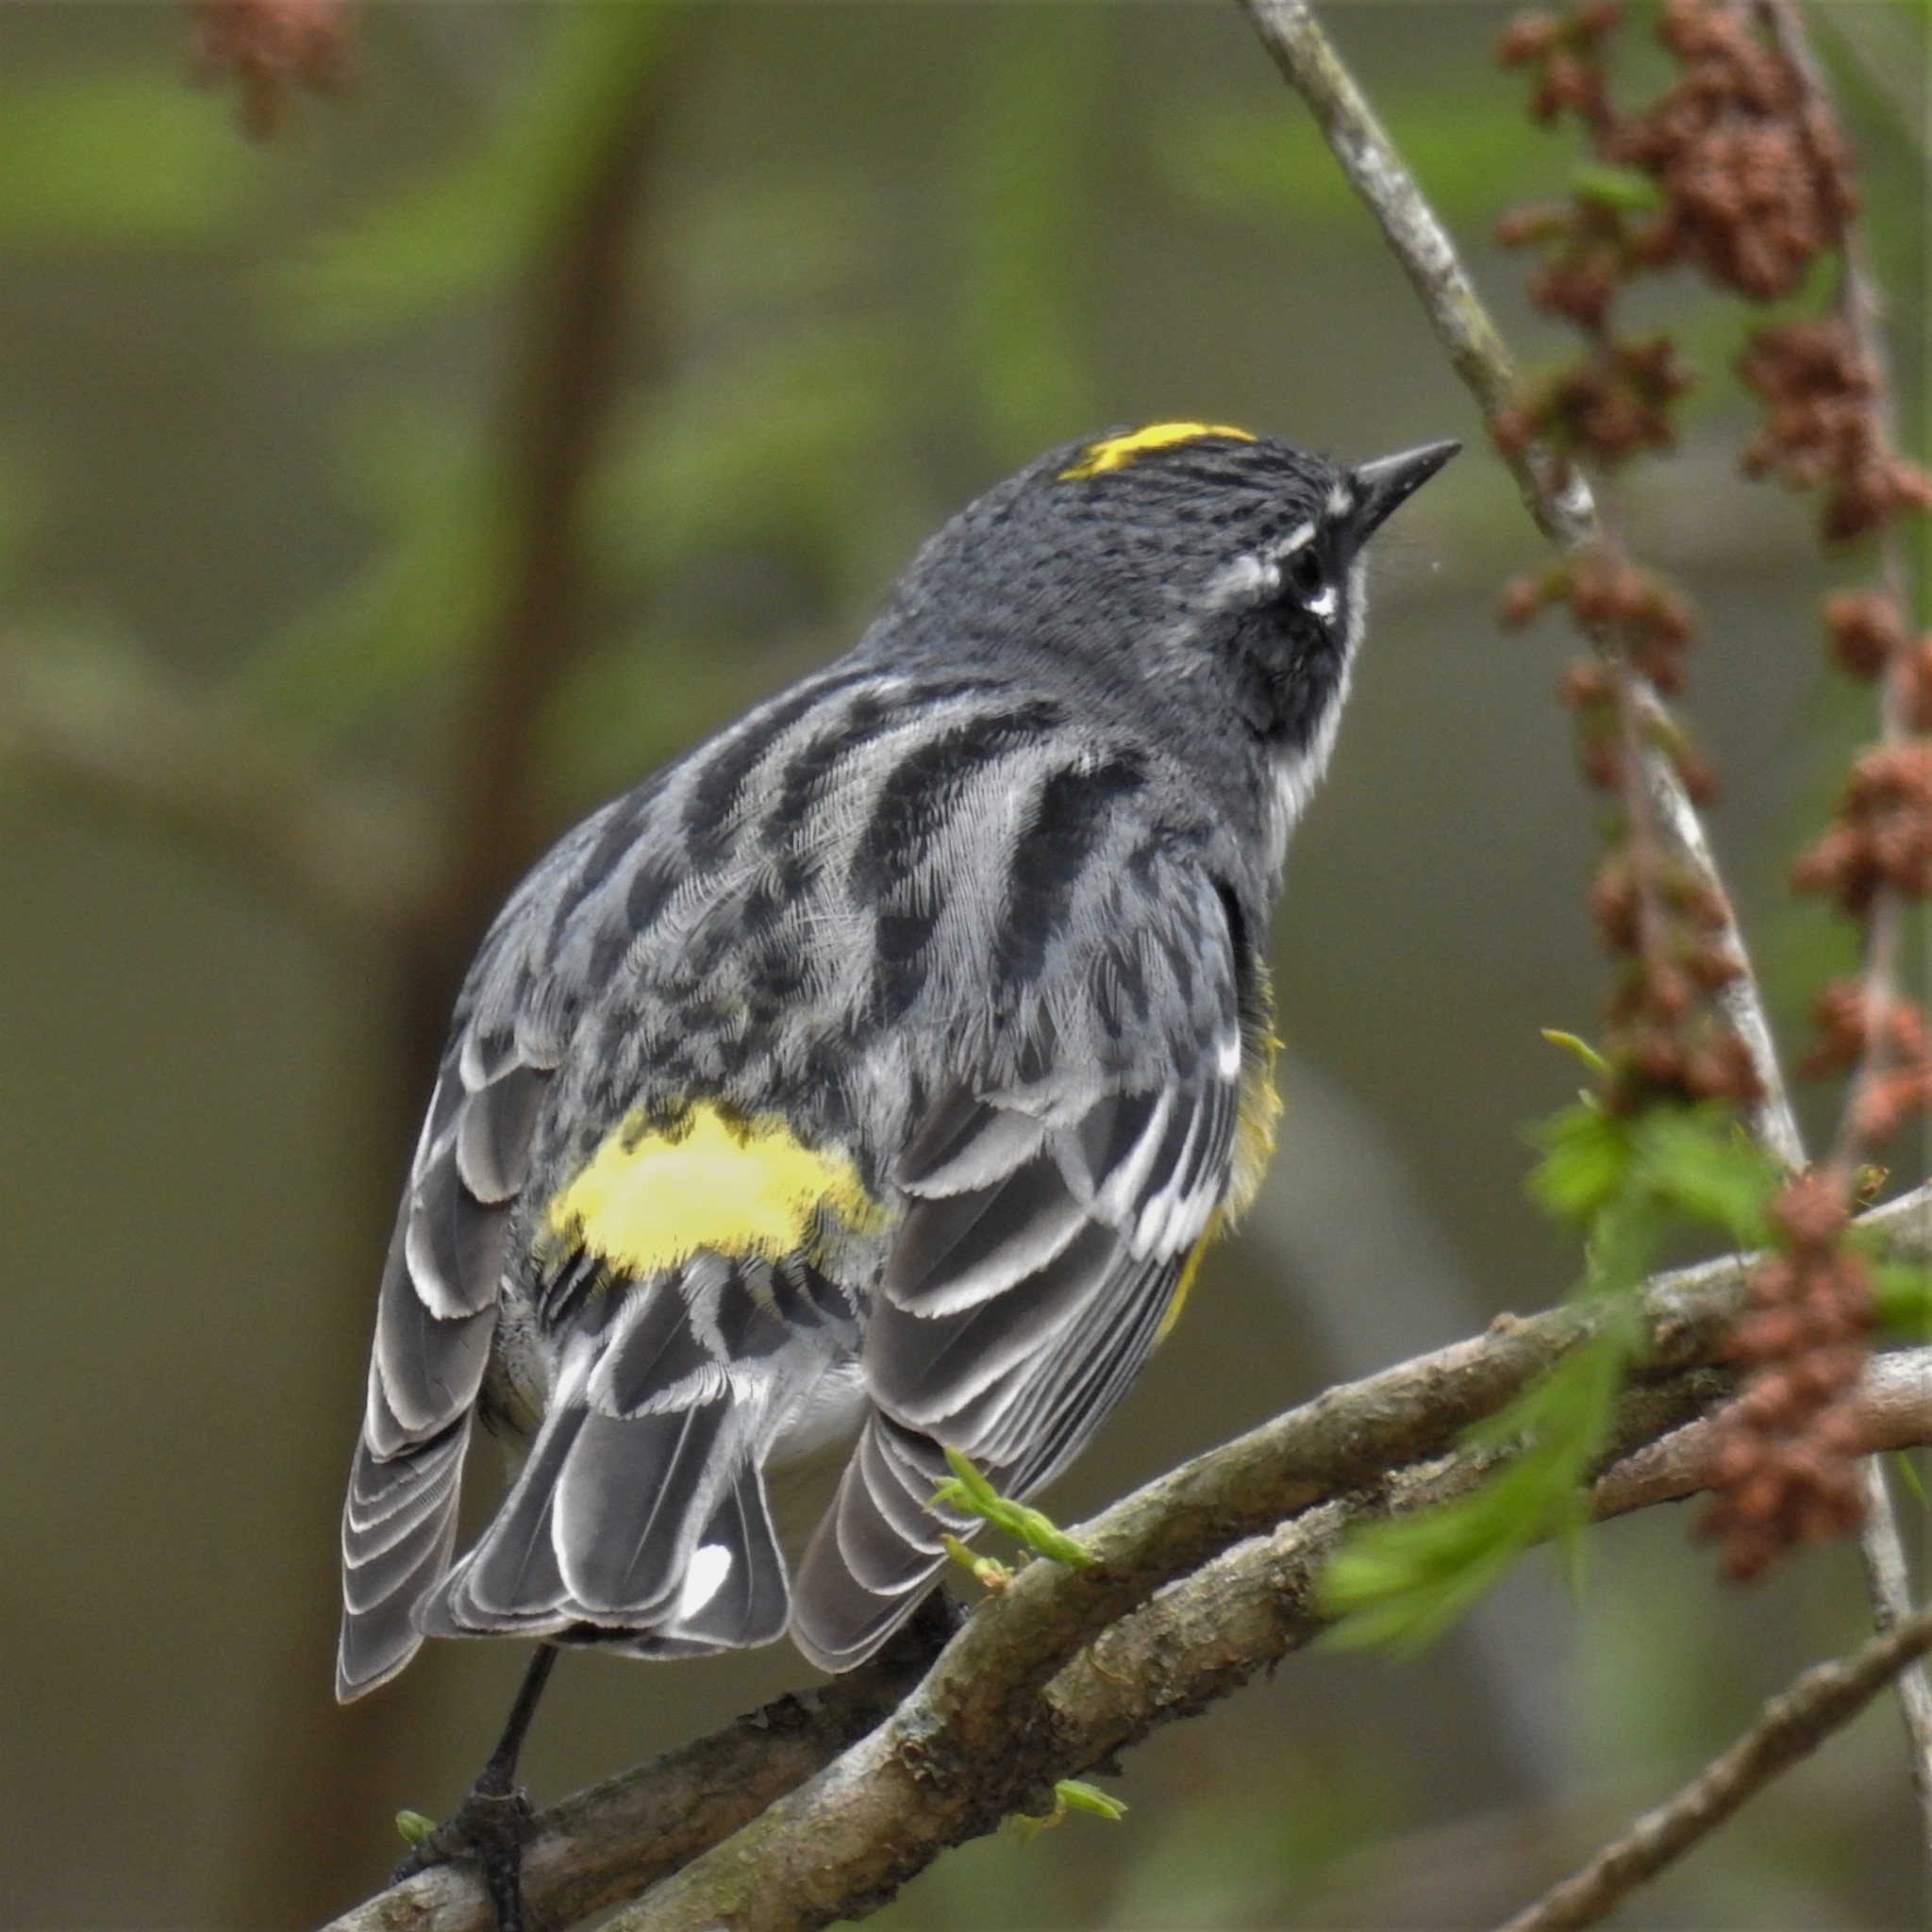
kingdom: Animalia
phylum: Chordata
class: Aves
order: Passeriformes
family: Parulidae
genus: Setophaga
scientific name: Setophaga coronata
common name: Myrtle warbler
